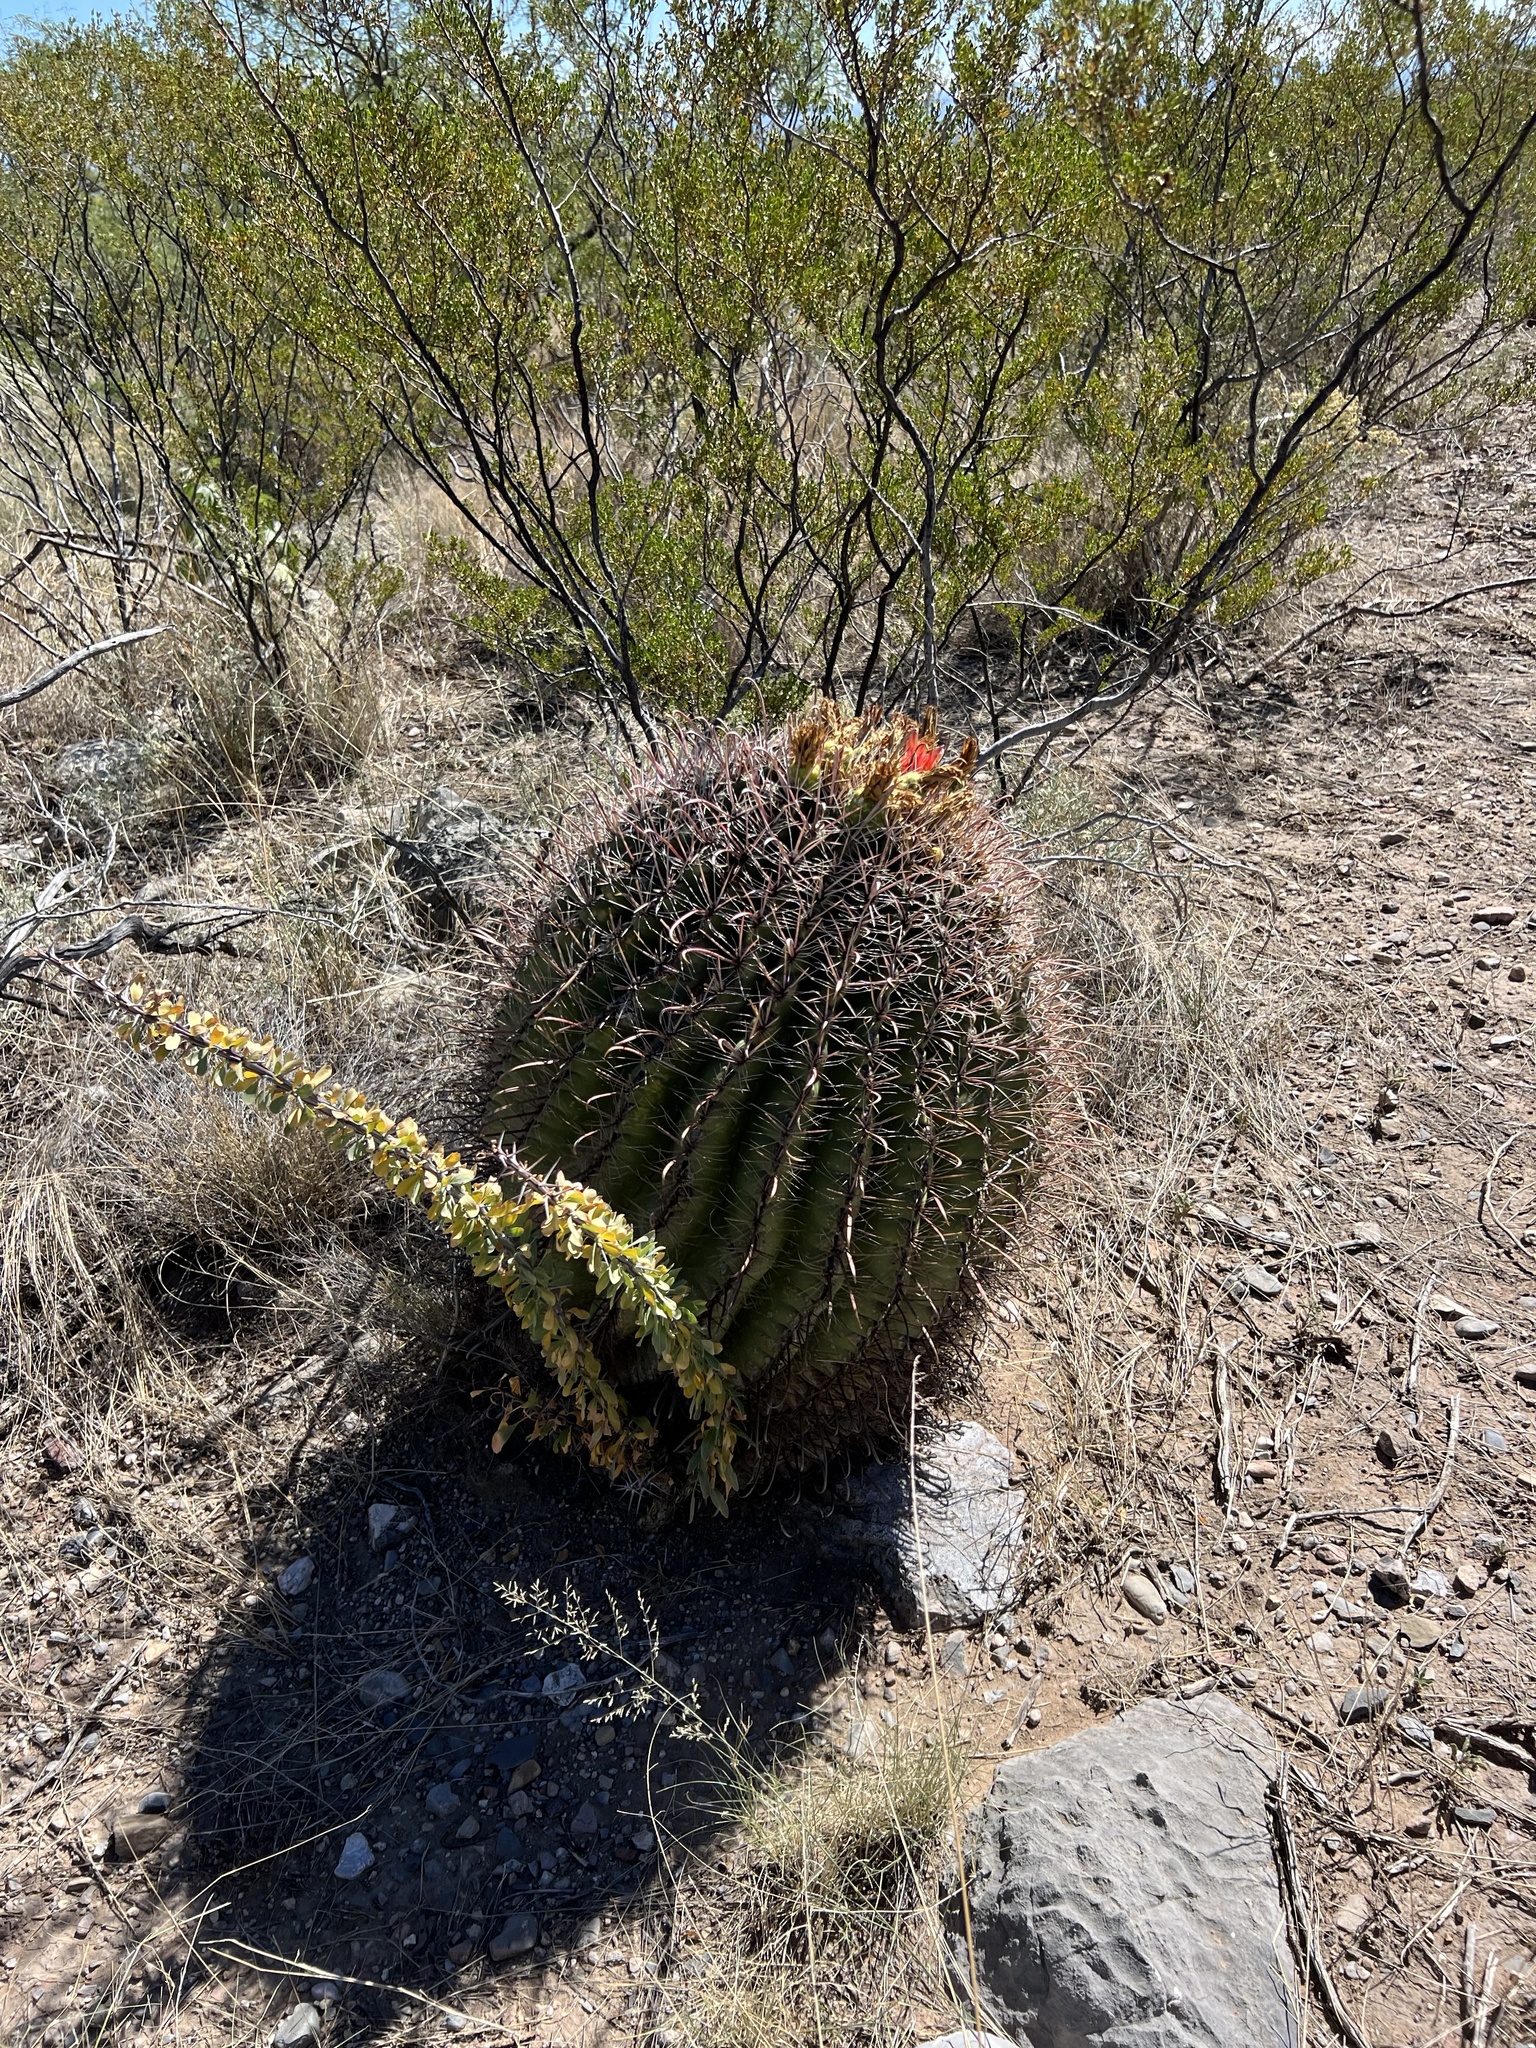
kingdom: Plantae
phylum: Tracheophyta
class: Magnoliopsida
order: Caryophyllales
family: Cactaceae
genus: Ferocactus
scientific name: Ferocactus wislizeni
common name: Candy barrel cactus
